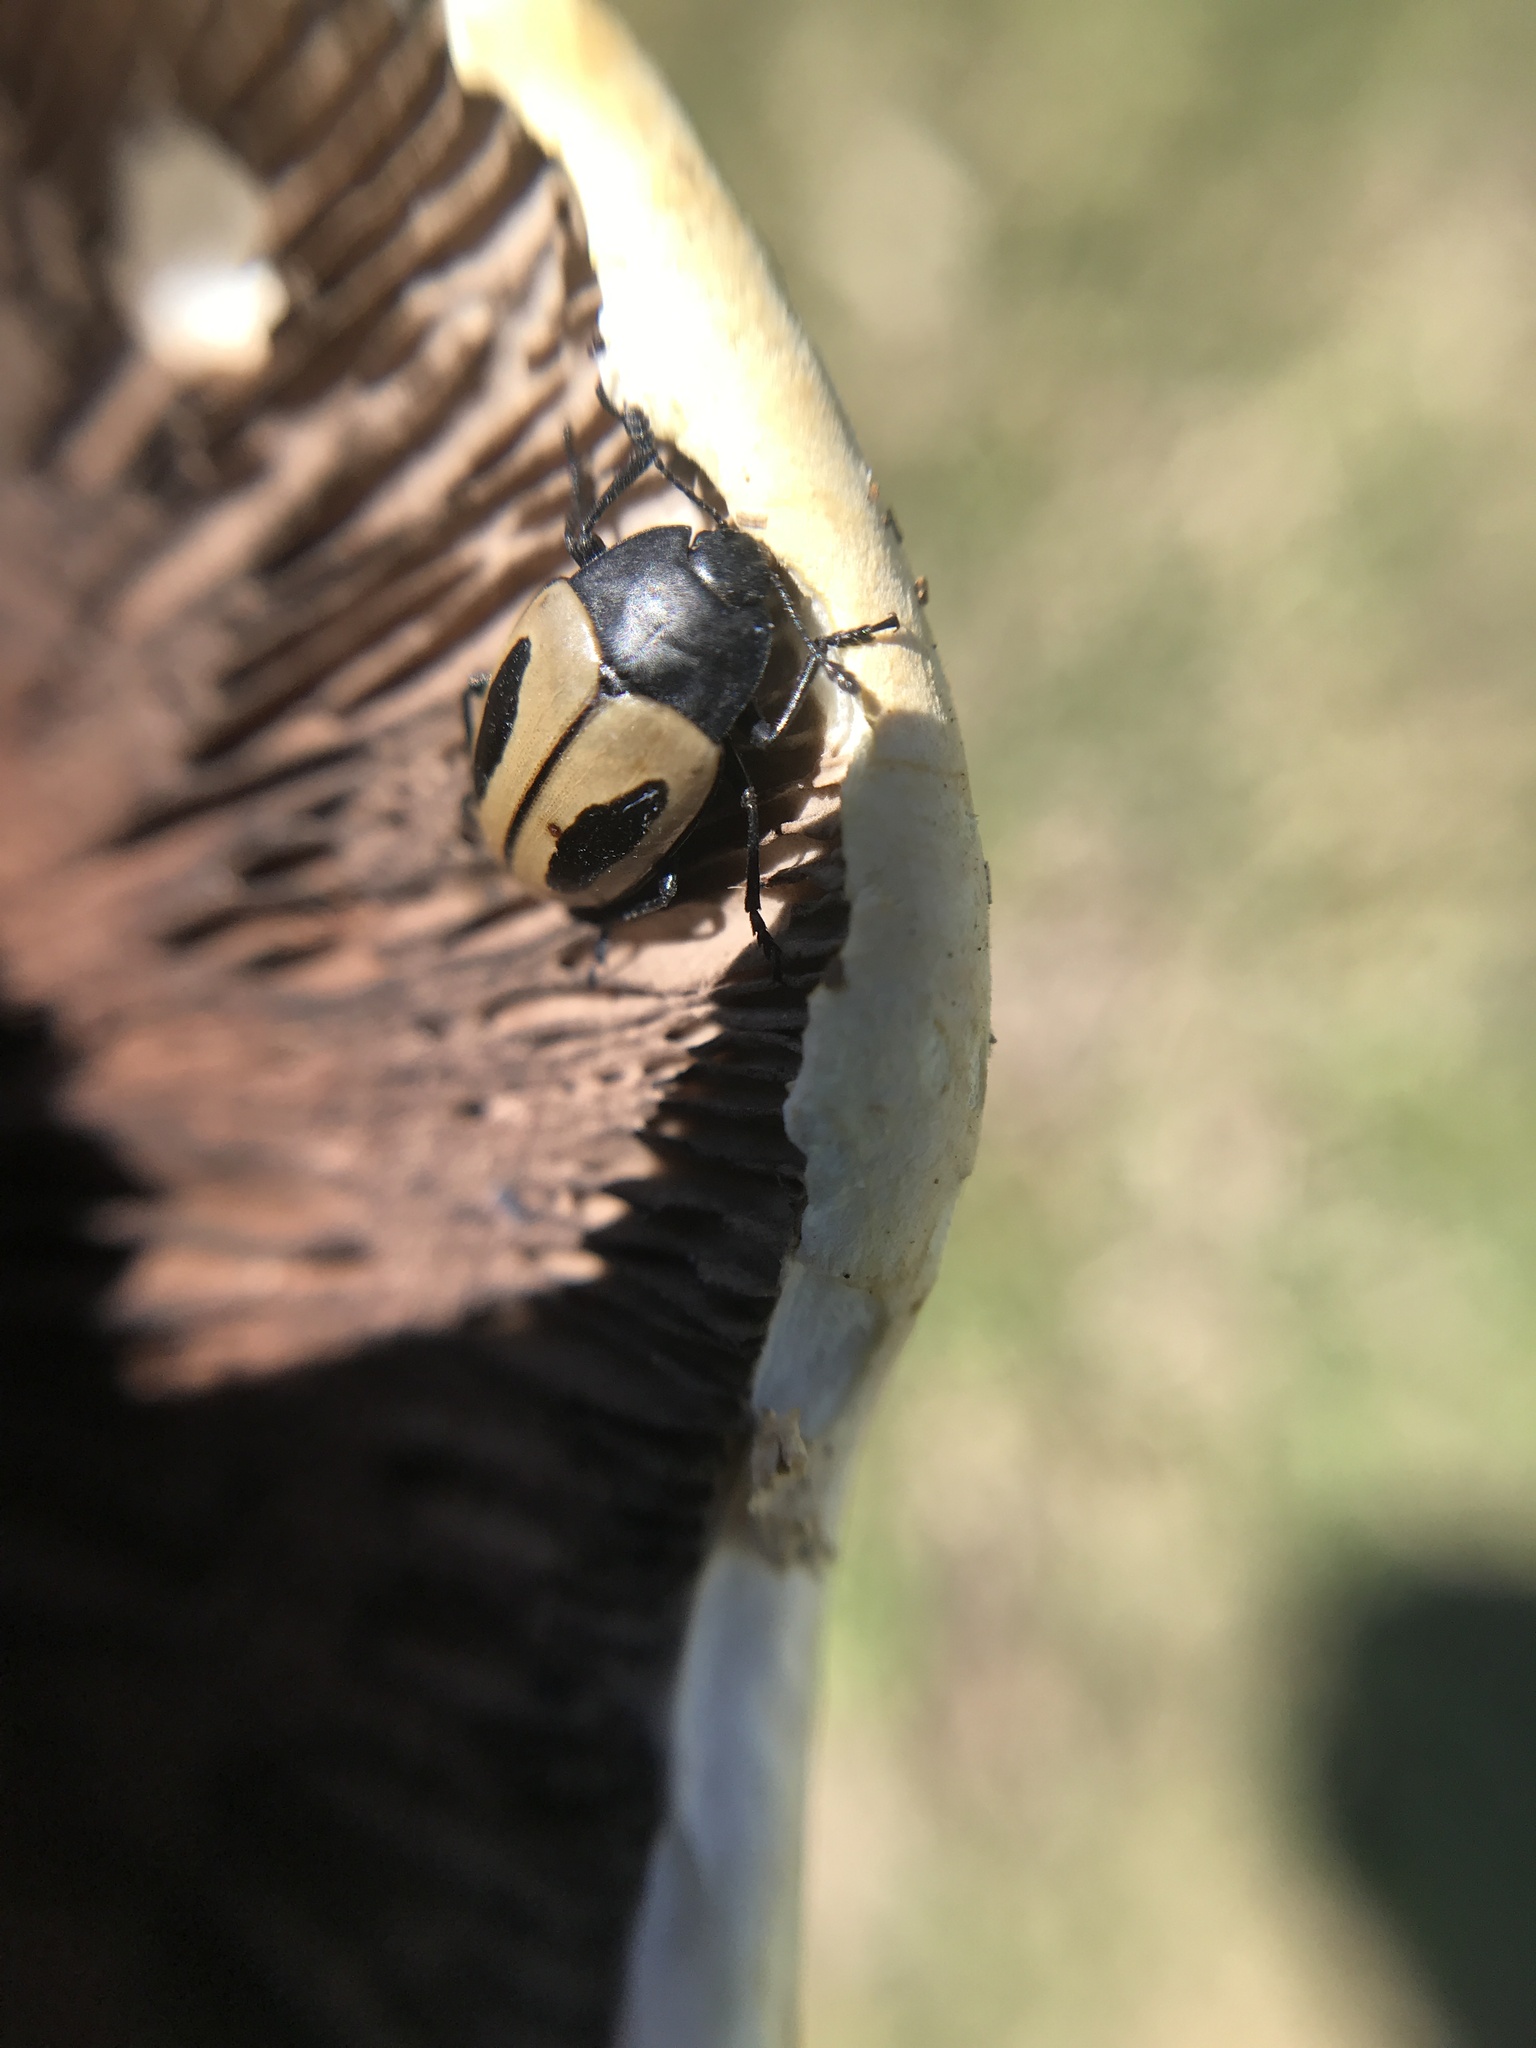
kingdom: Animalia
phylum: Arthropoda
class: Insecta
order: Coleoptera
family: Erotylidae
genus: Iphiclus
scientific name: Iphiclus
